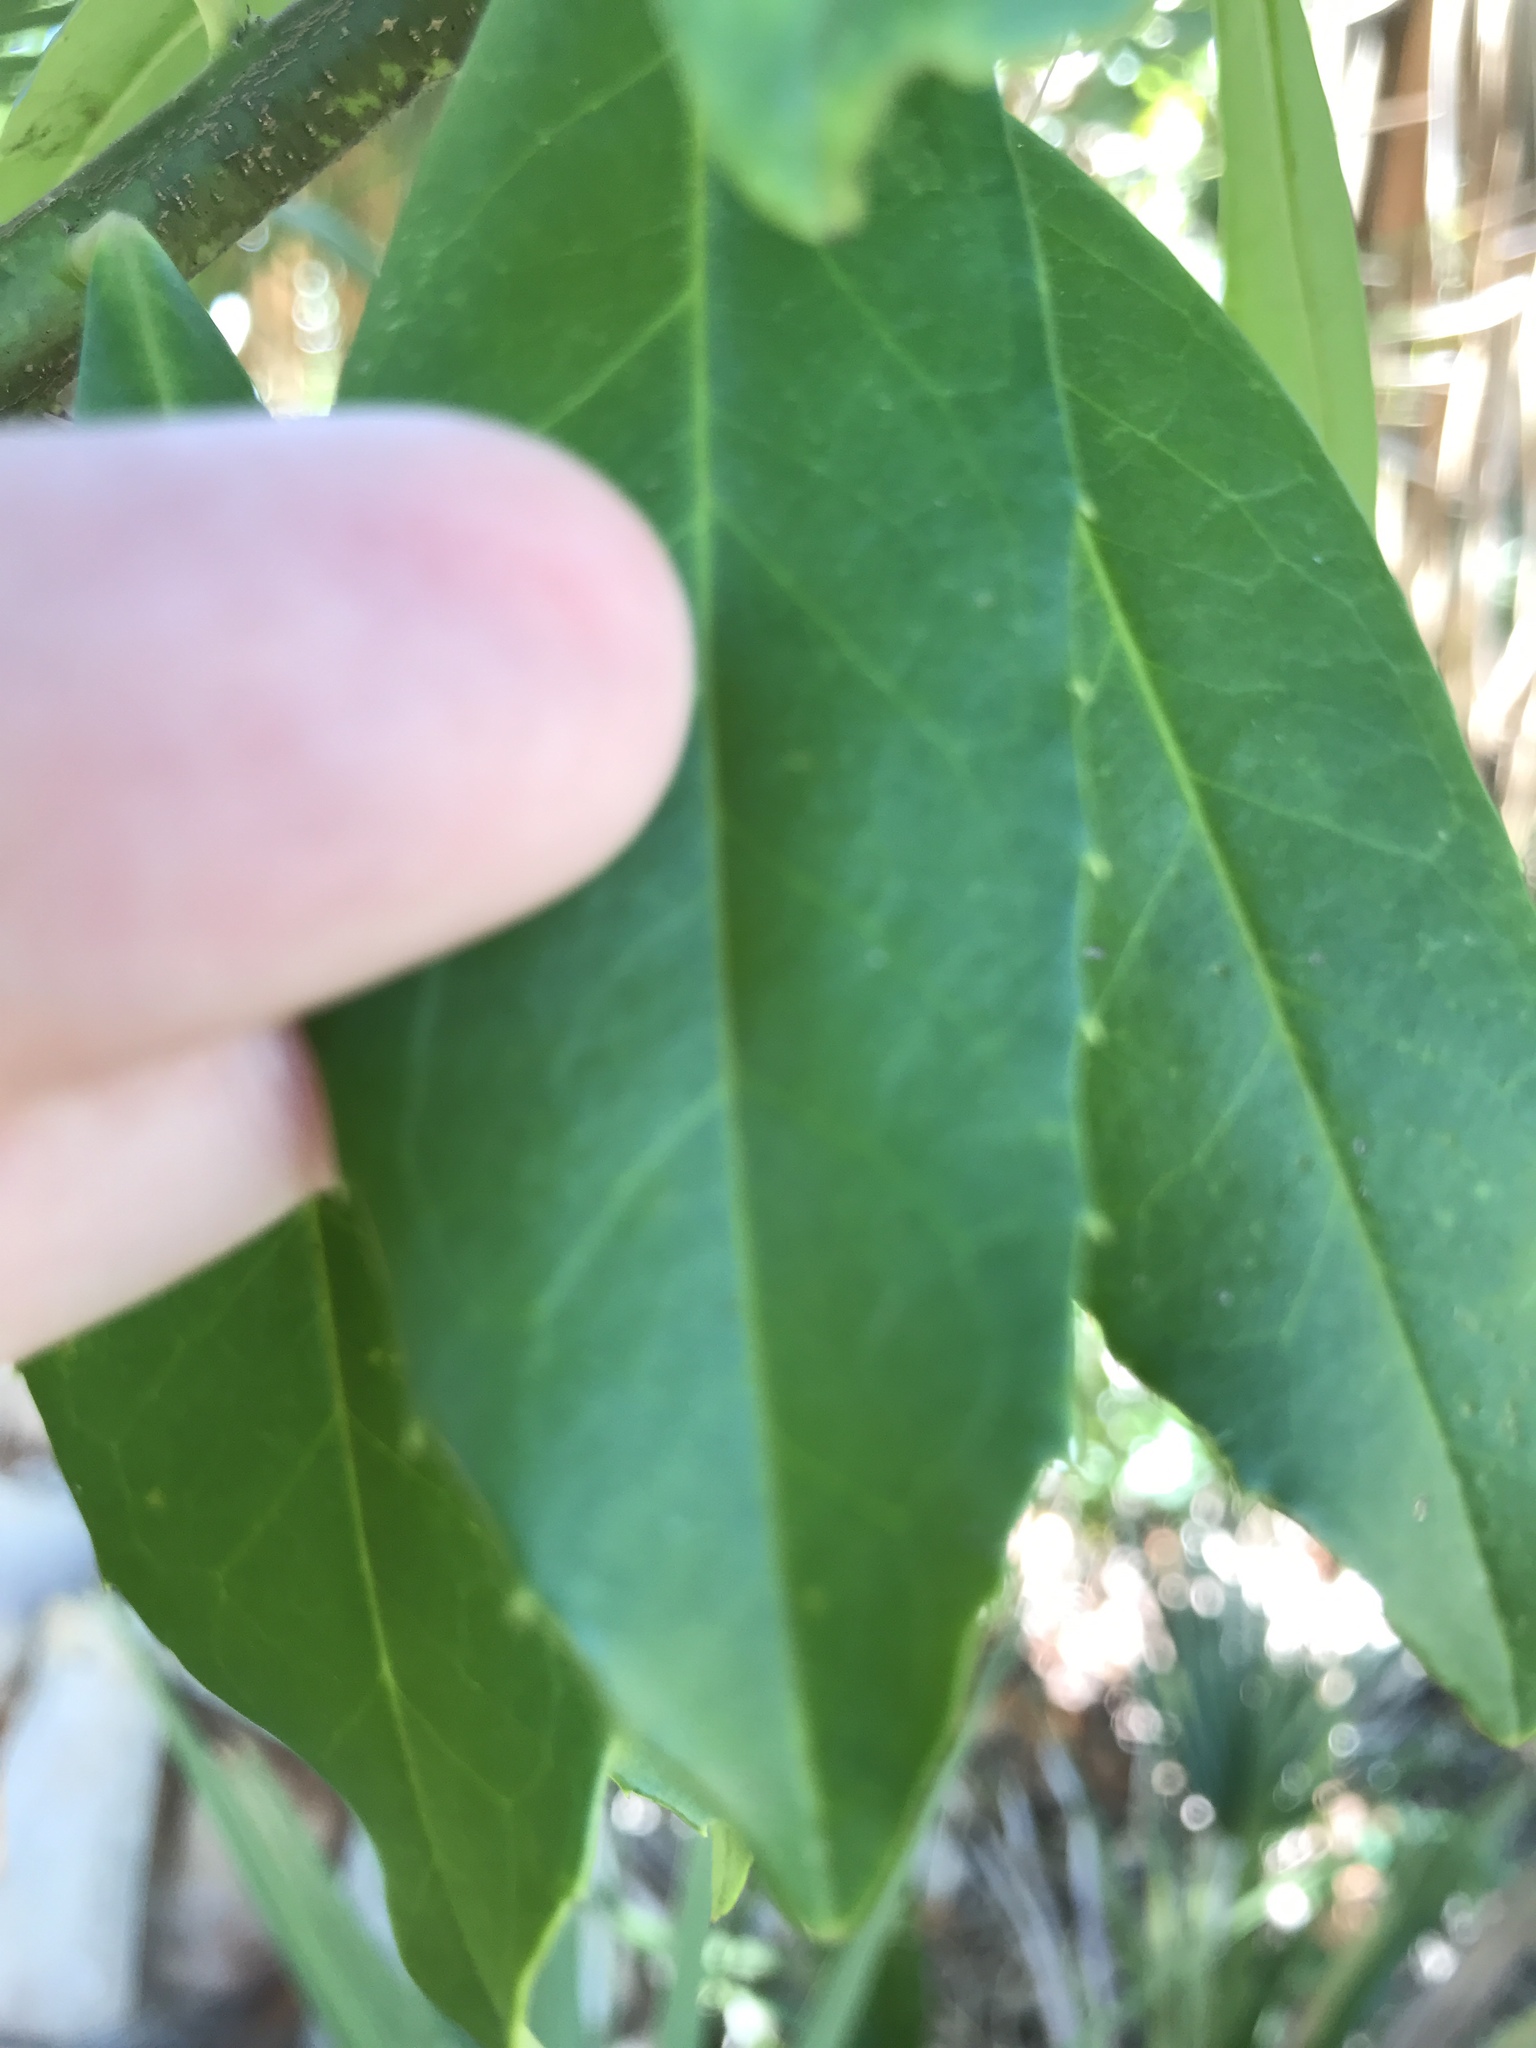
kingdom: Plantae
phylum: Tracheophyta
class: Magnoliopsida
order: Aquifoliales
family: Aquifoliaceae
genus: Ilex
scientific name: Ilex cassine
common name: Dahoon
